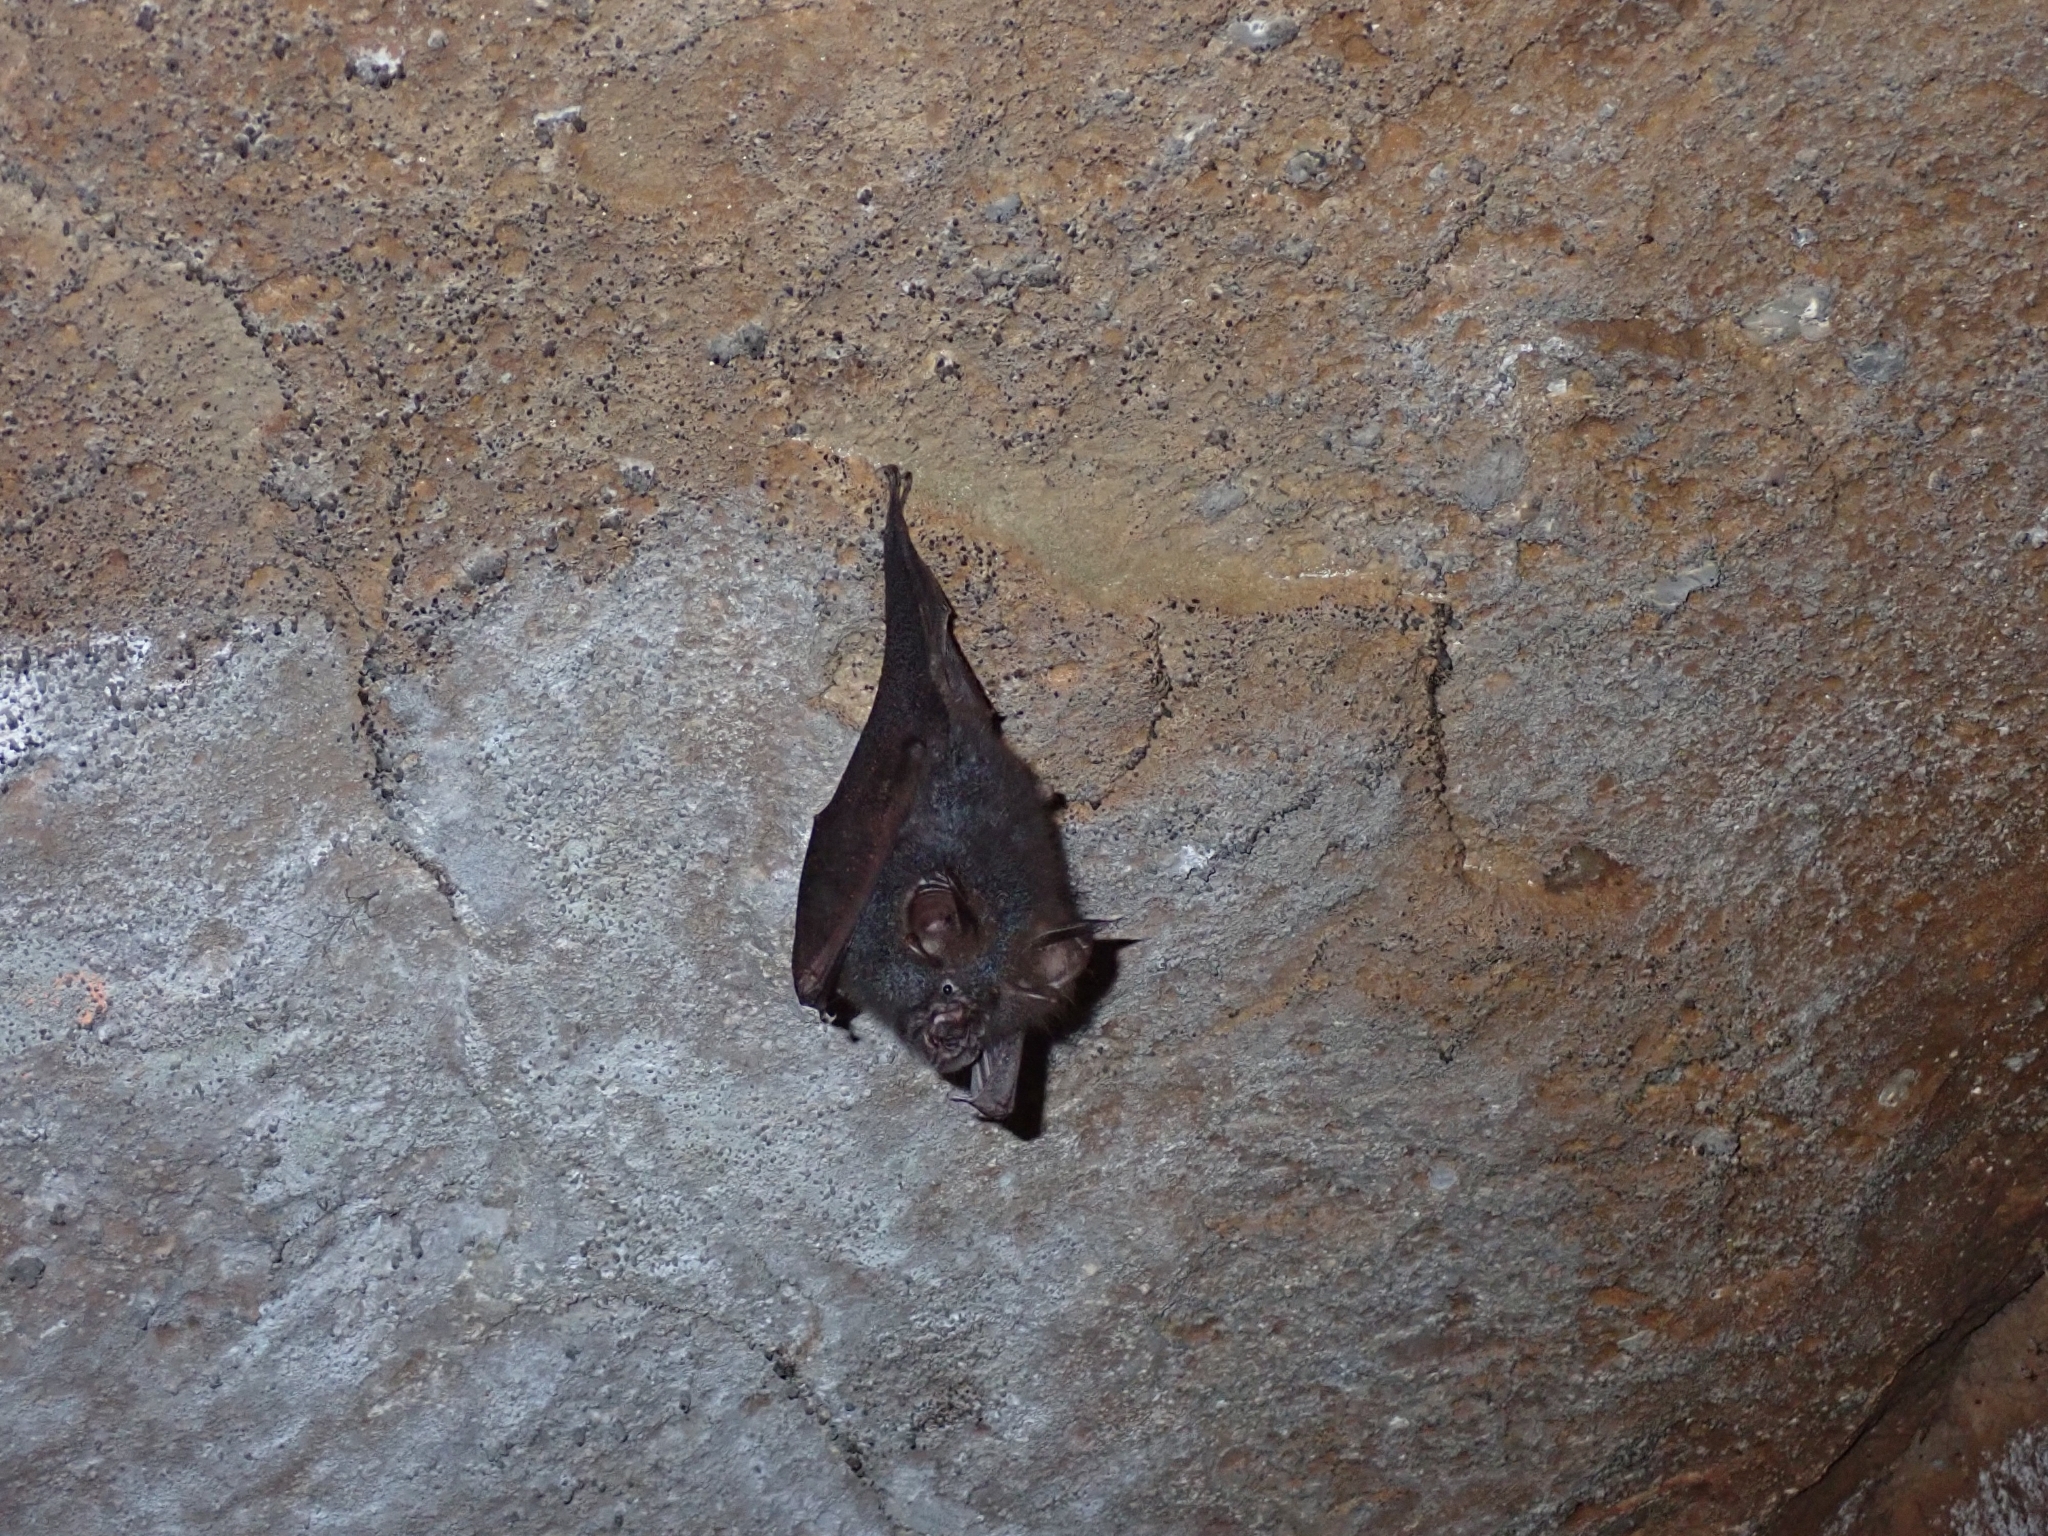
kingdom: Animalia
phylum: Chordata
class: Mammalia
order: Chiroptera
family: Rhinolophidae
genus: Rhinolophus
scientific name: Rhinolophus luctus
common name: Woolly horseshoe bat
